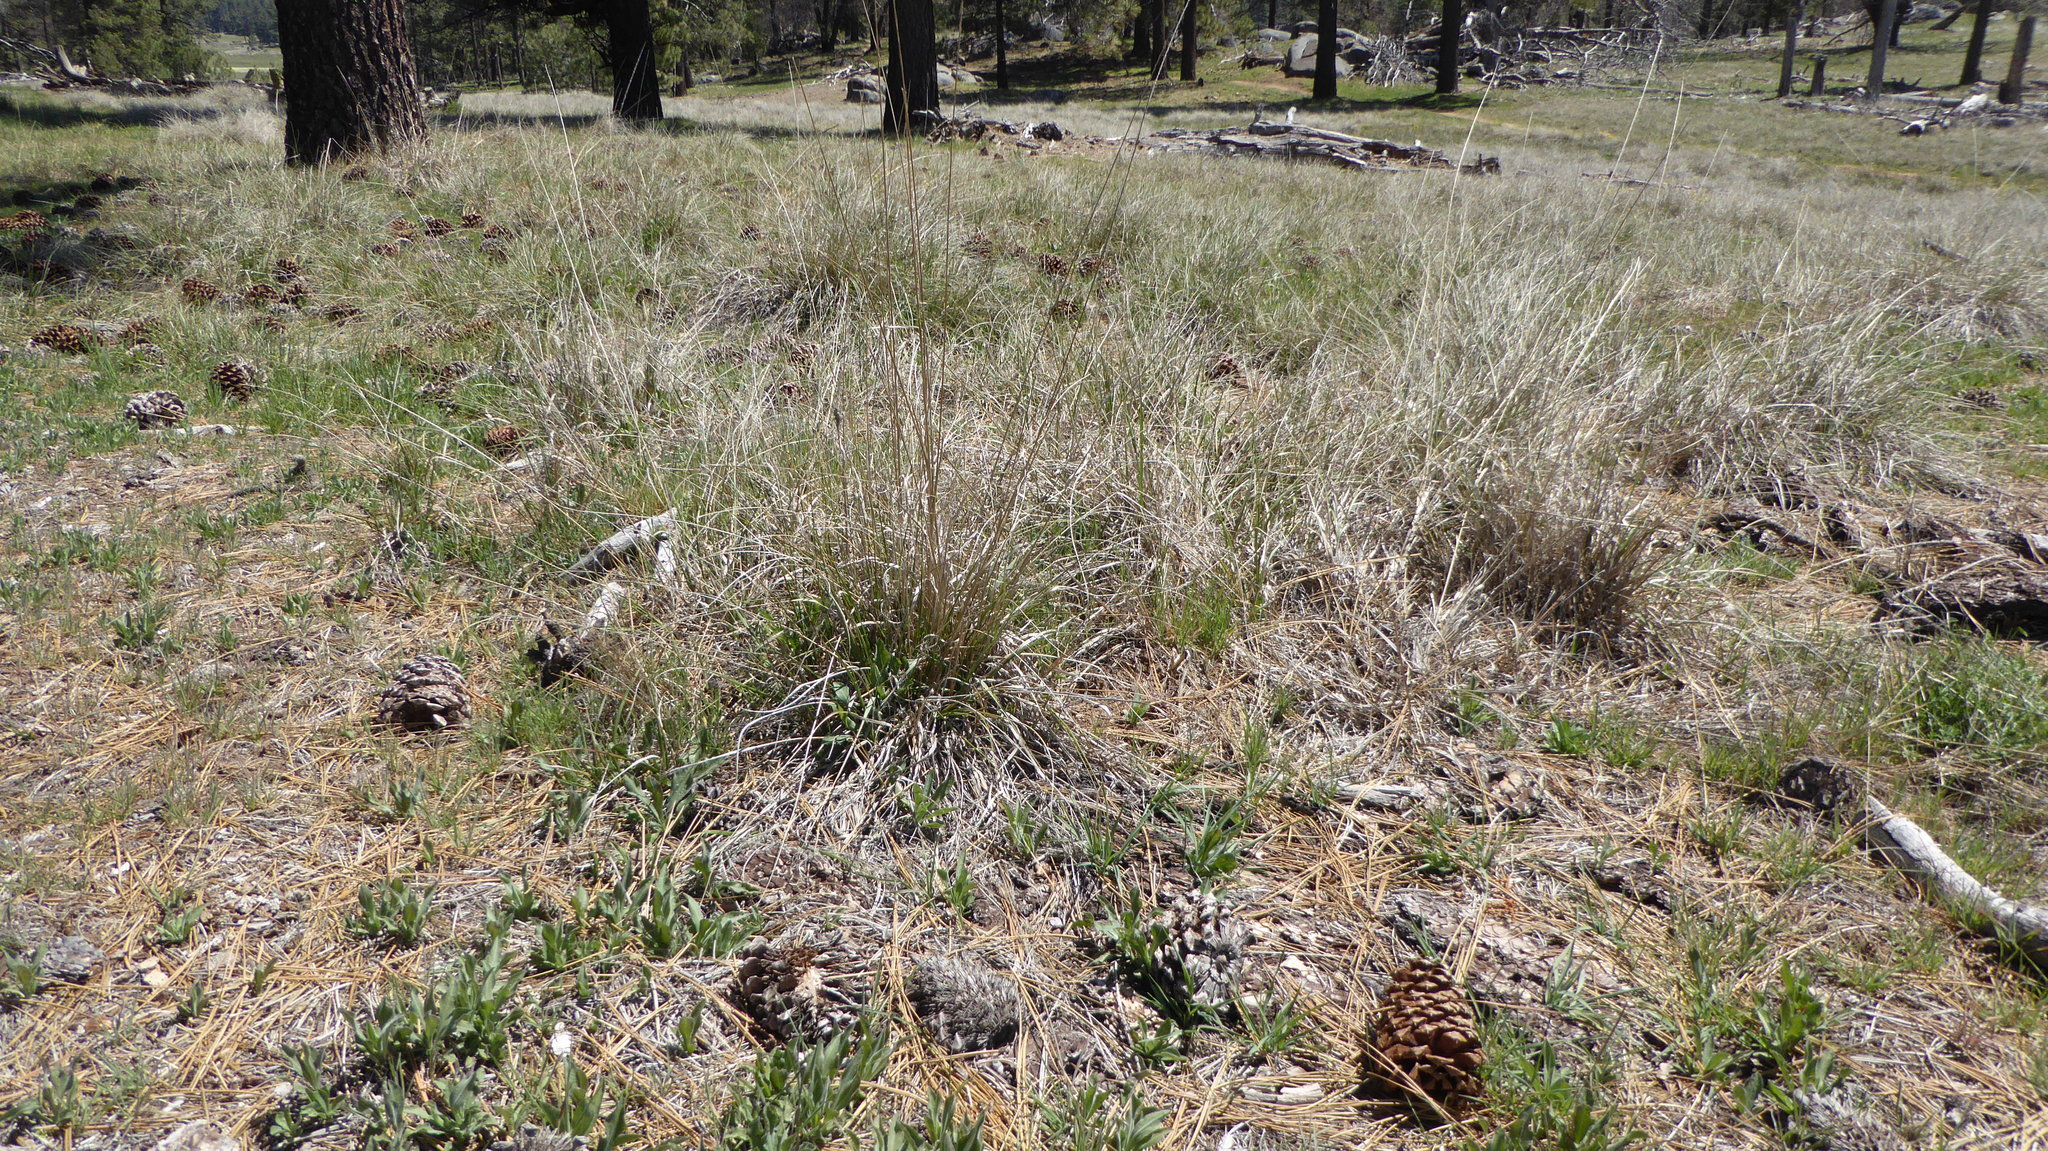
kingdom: Plantae
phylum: Tracheophyta
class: Liliopsida
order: Poales
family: Poaceae
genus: Muhlenbergia
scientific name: Muhlenbergia rigens
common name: Deer grass
